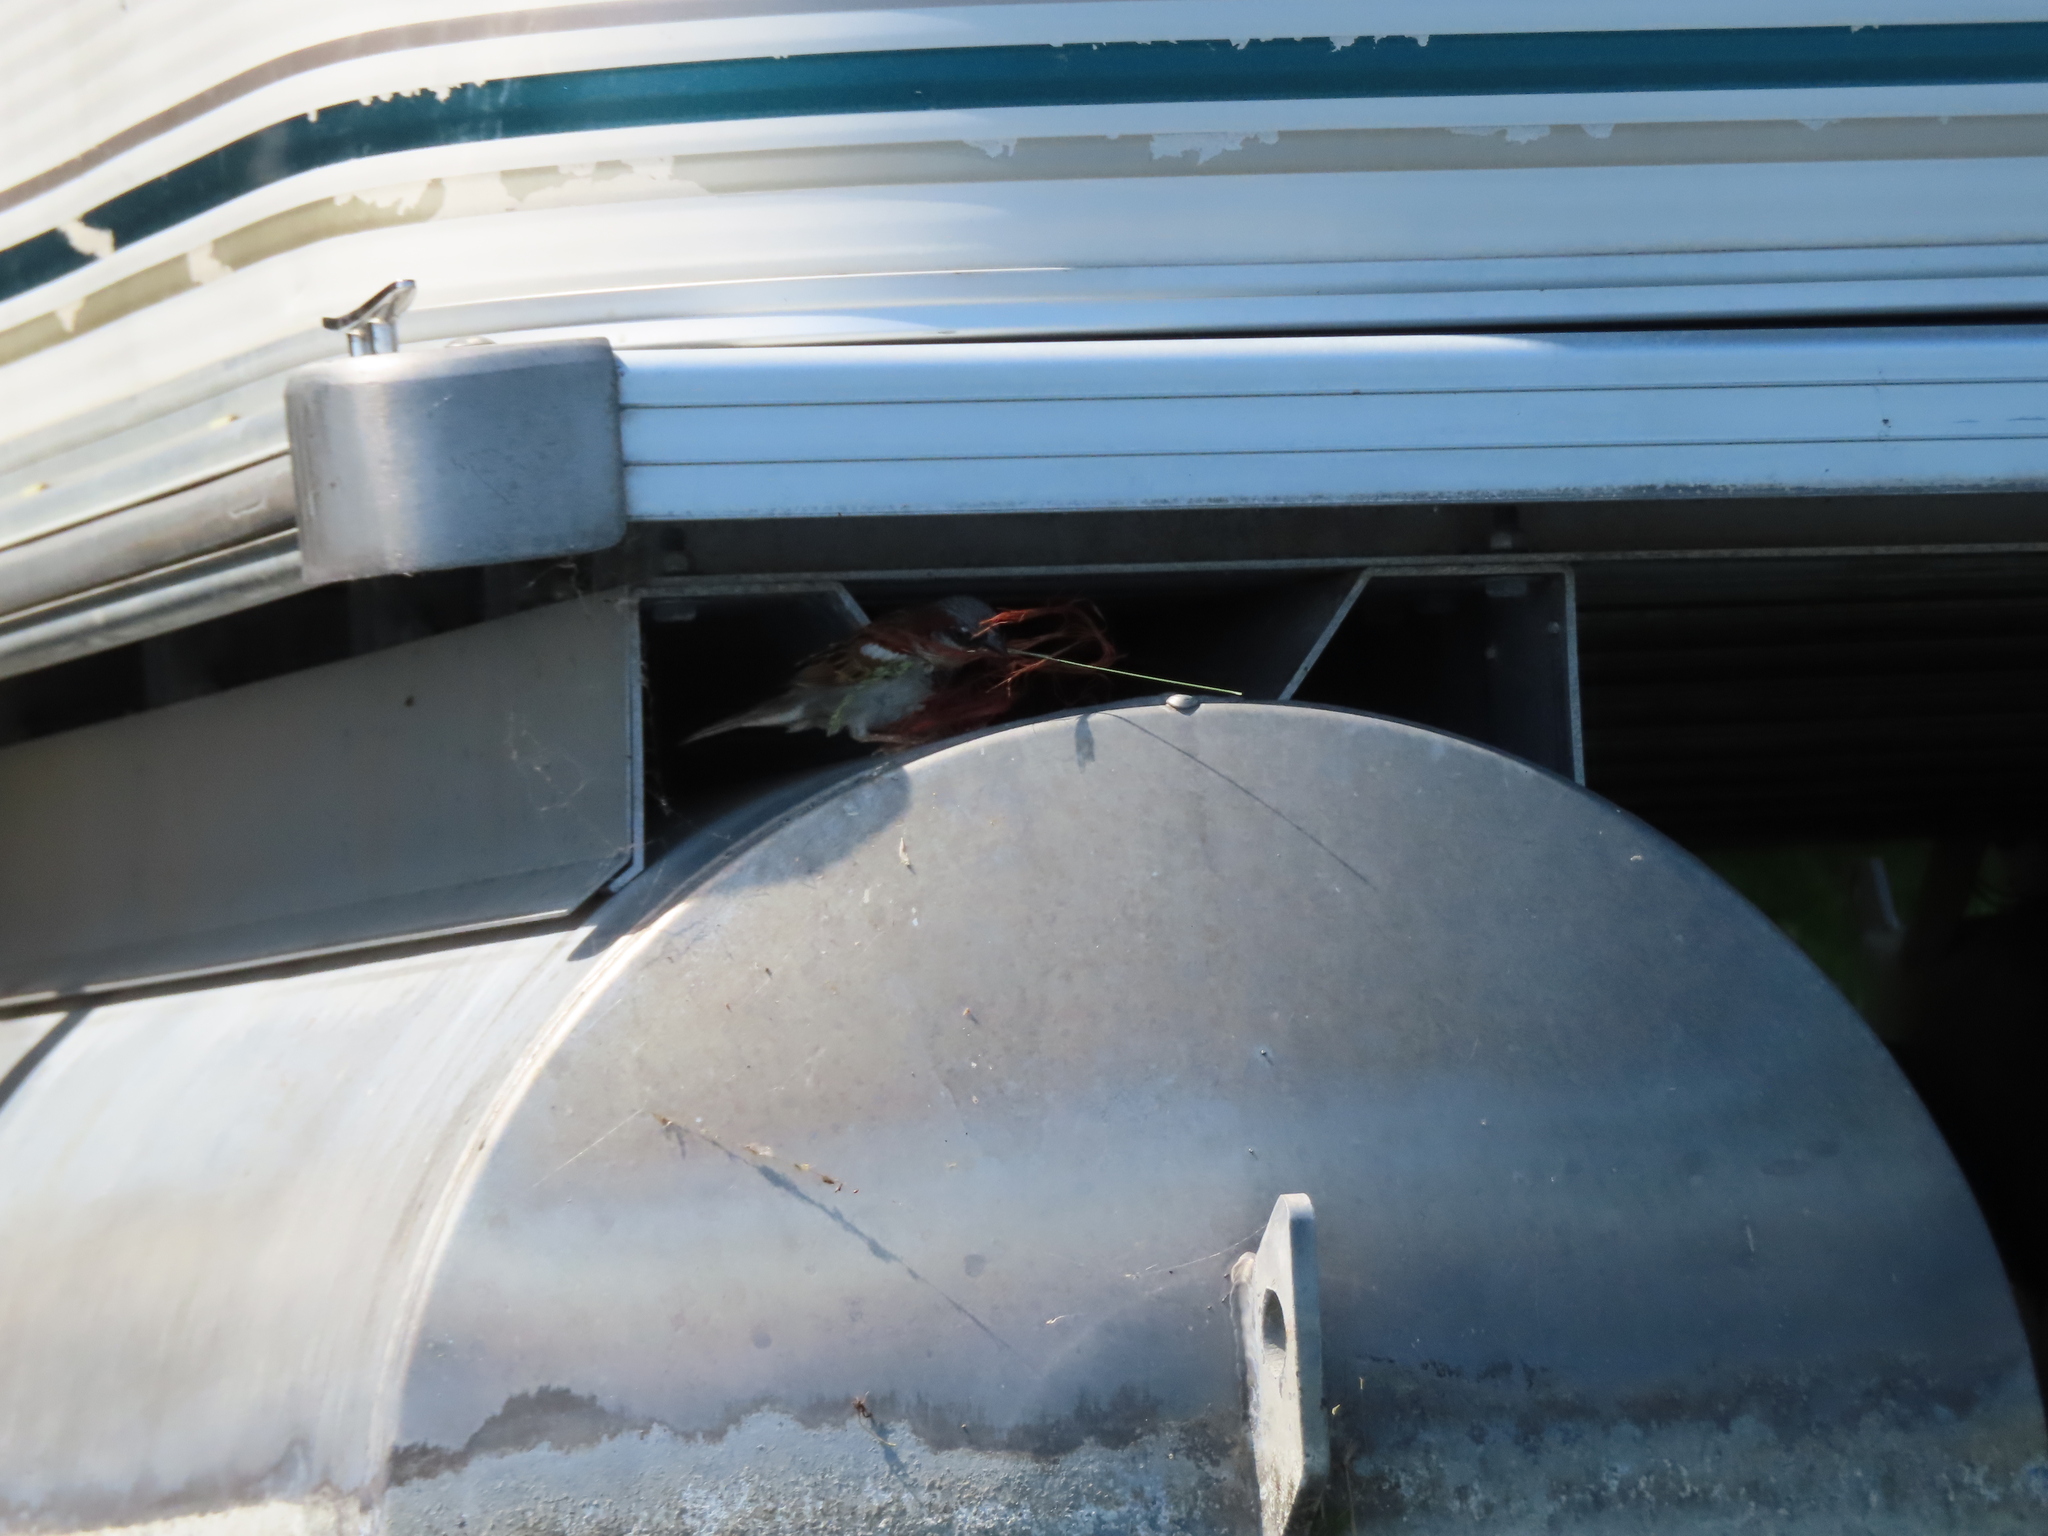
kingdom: Animalia
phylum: Chordata
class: Aves
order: Passeriformes
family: Passeridae
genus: Passer
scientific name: Passer domesticus
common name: House sparrow
